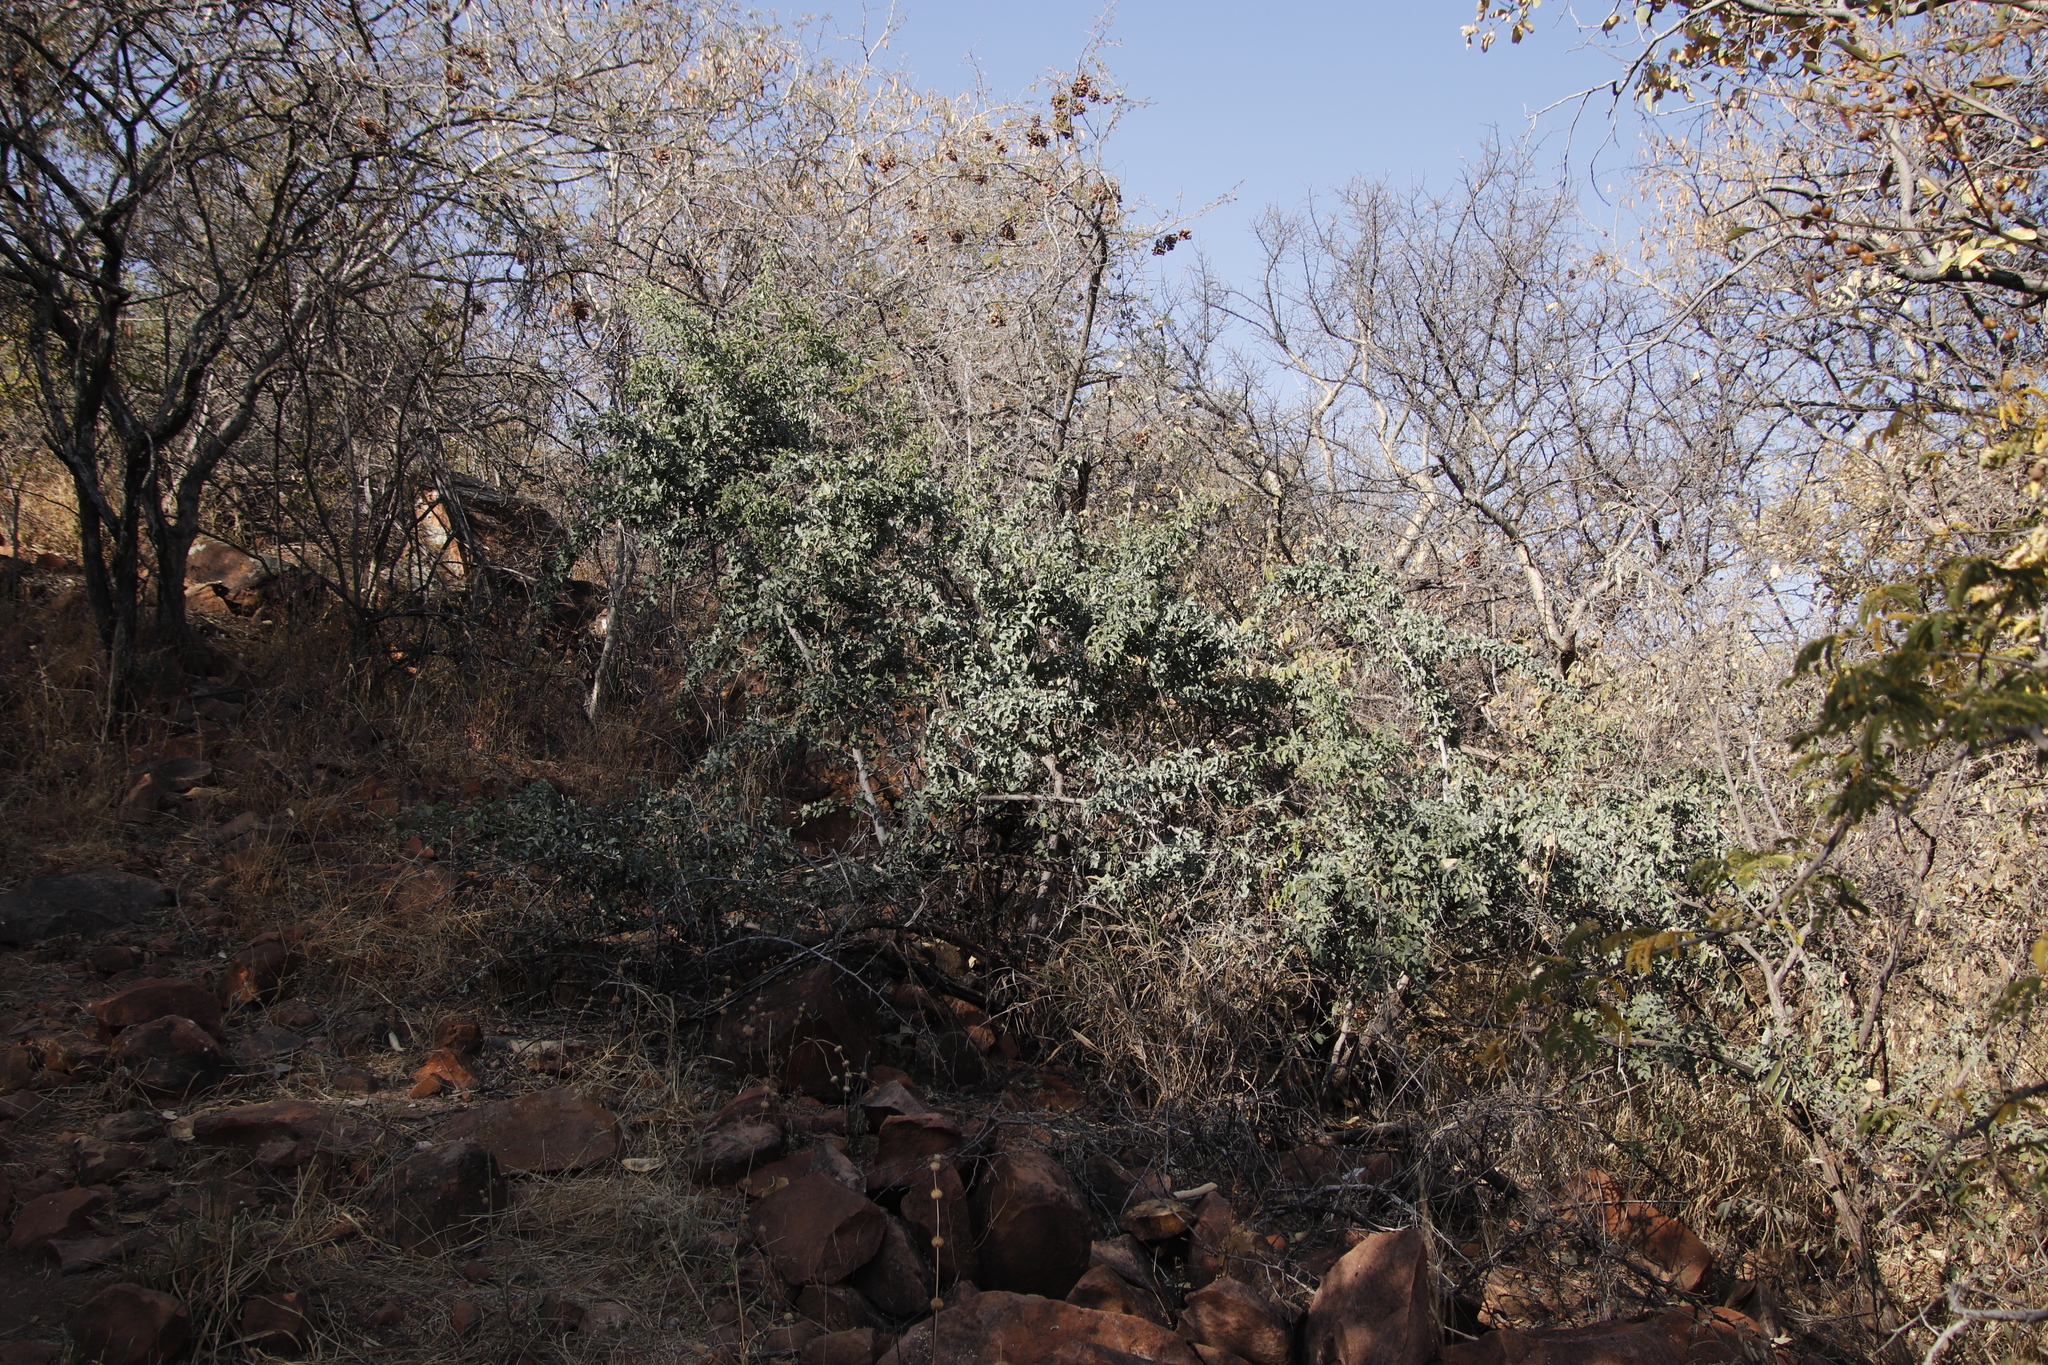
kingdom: Plantae
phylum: Tracheophyta
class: Magnoliopsida
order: Ericales
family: Ebenaceae
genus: Euclea
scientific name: Euclea undulata
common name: Small-leaved guarri
